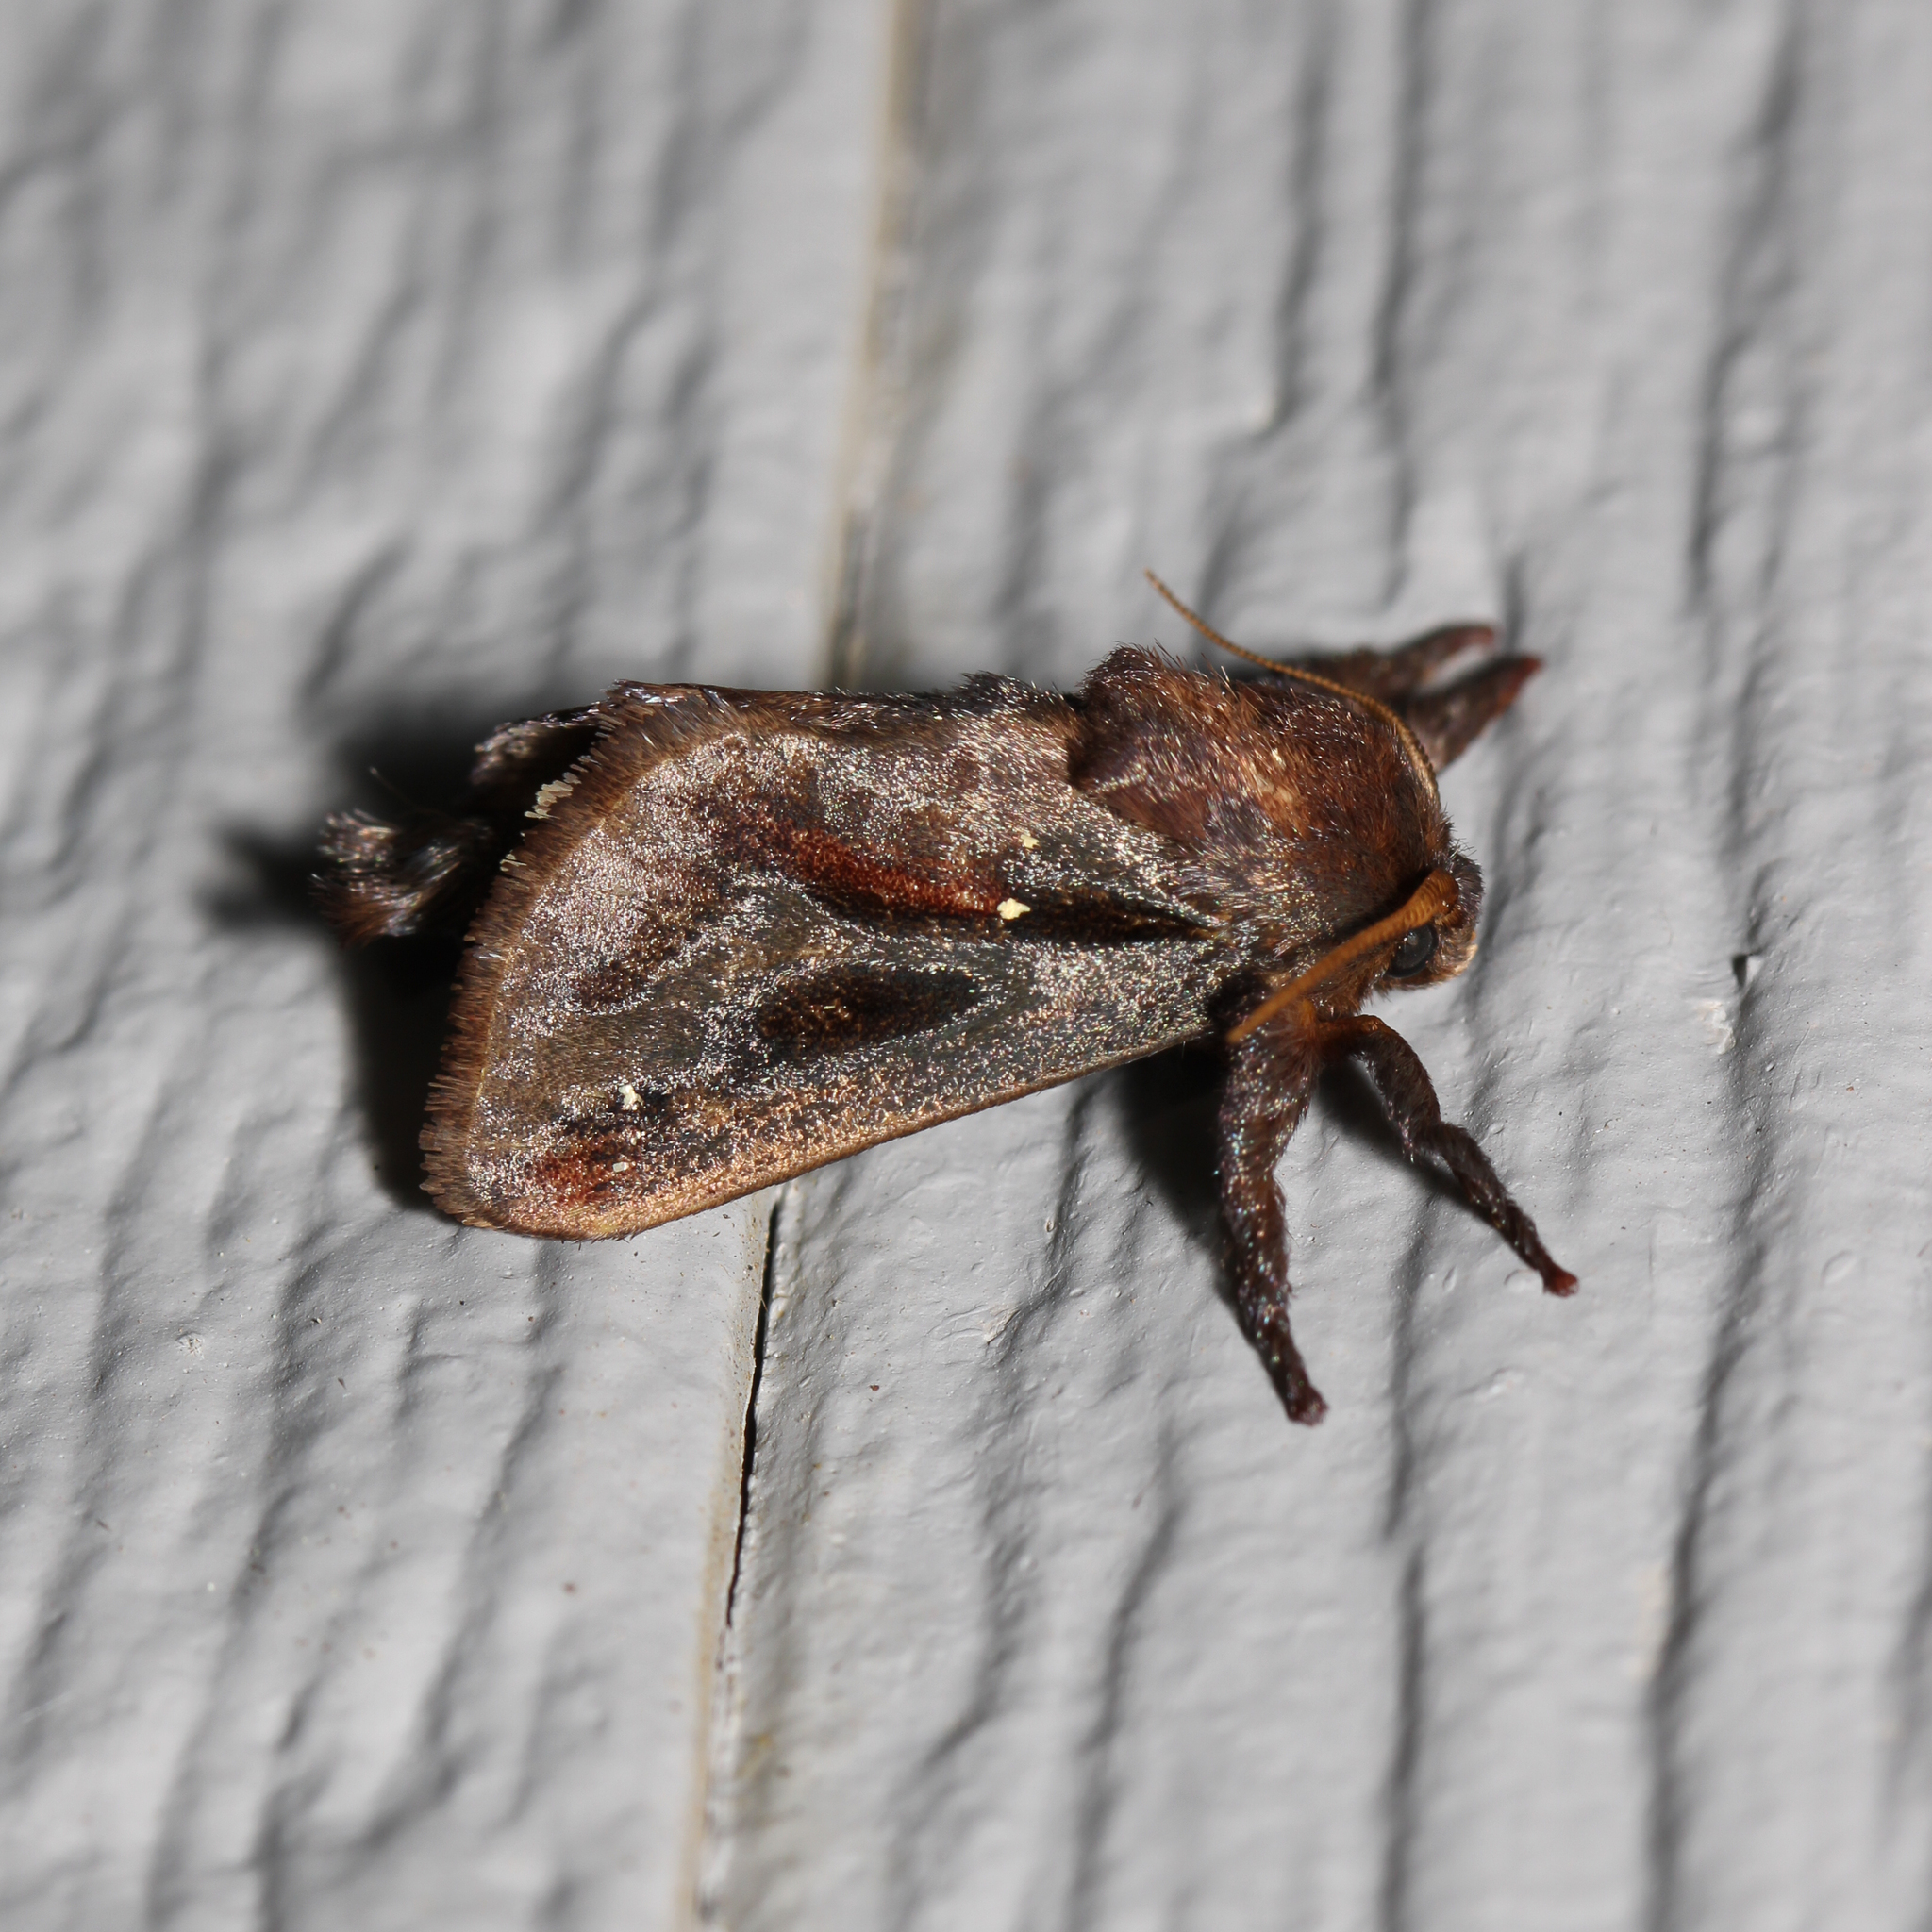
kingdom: Animalia
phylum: Arthropoda
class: Insecta
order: Lepidoptera
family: Limacodidae
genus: Acharia
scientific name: Acharia stimulea
